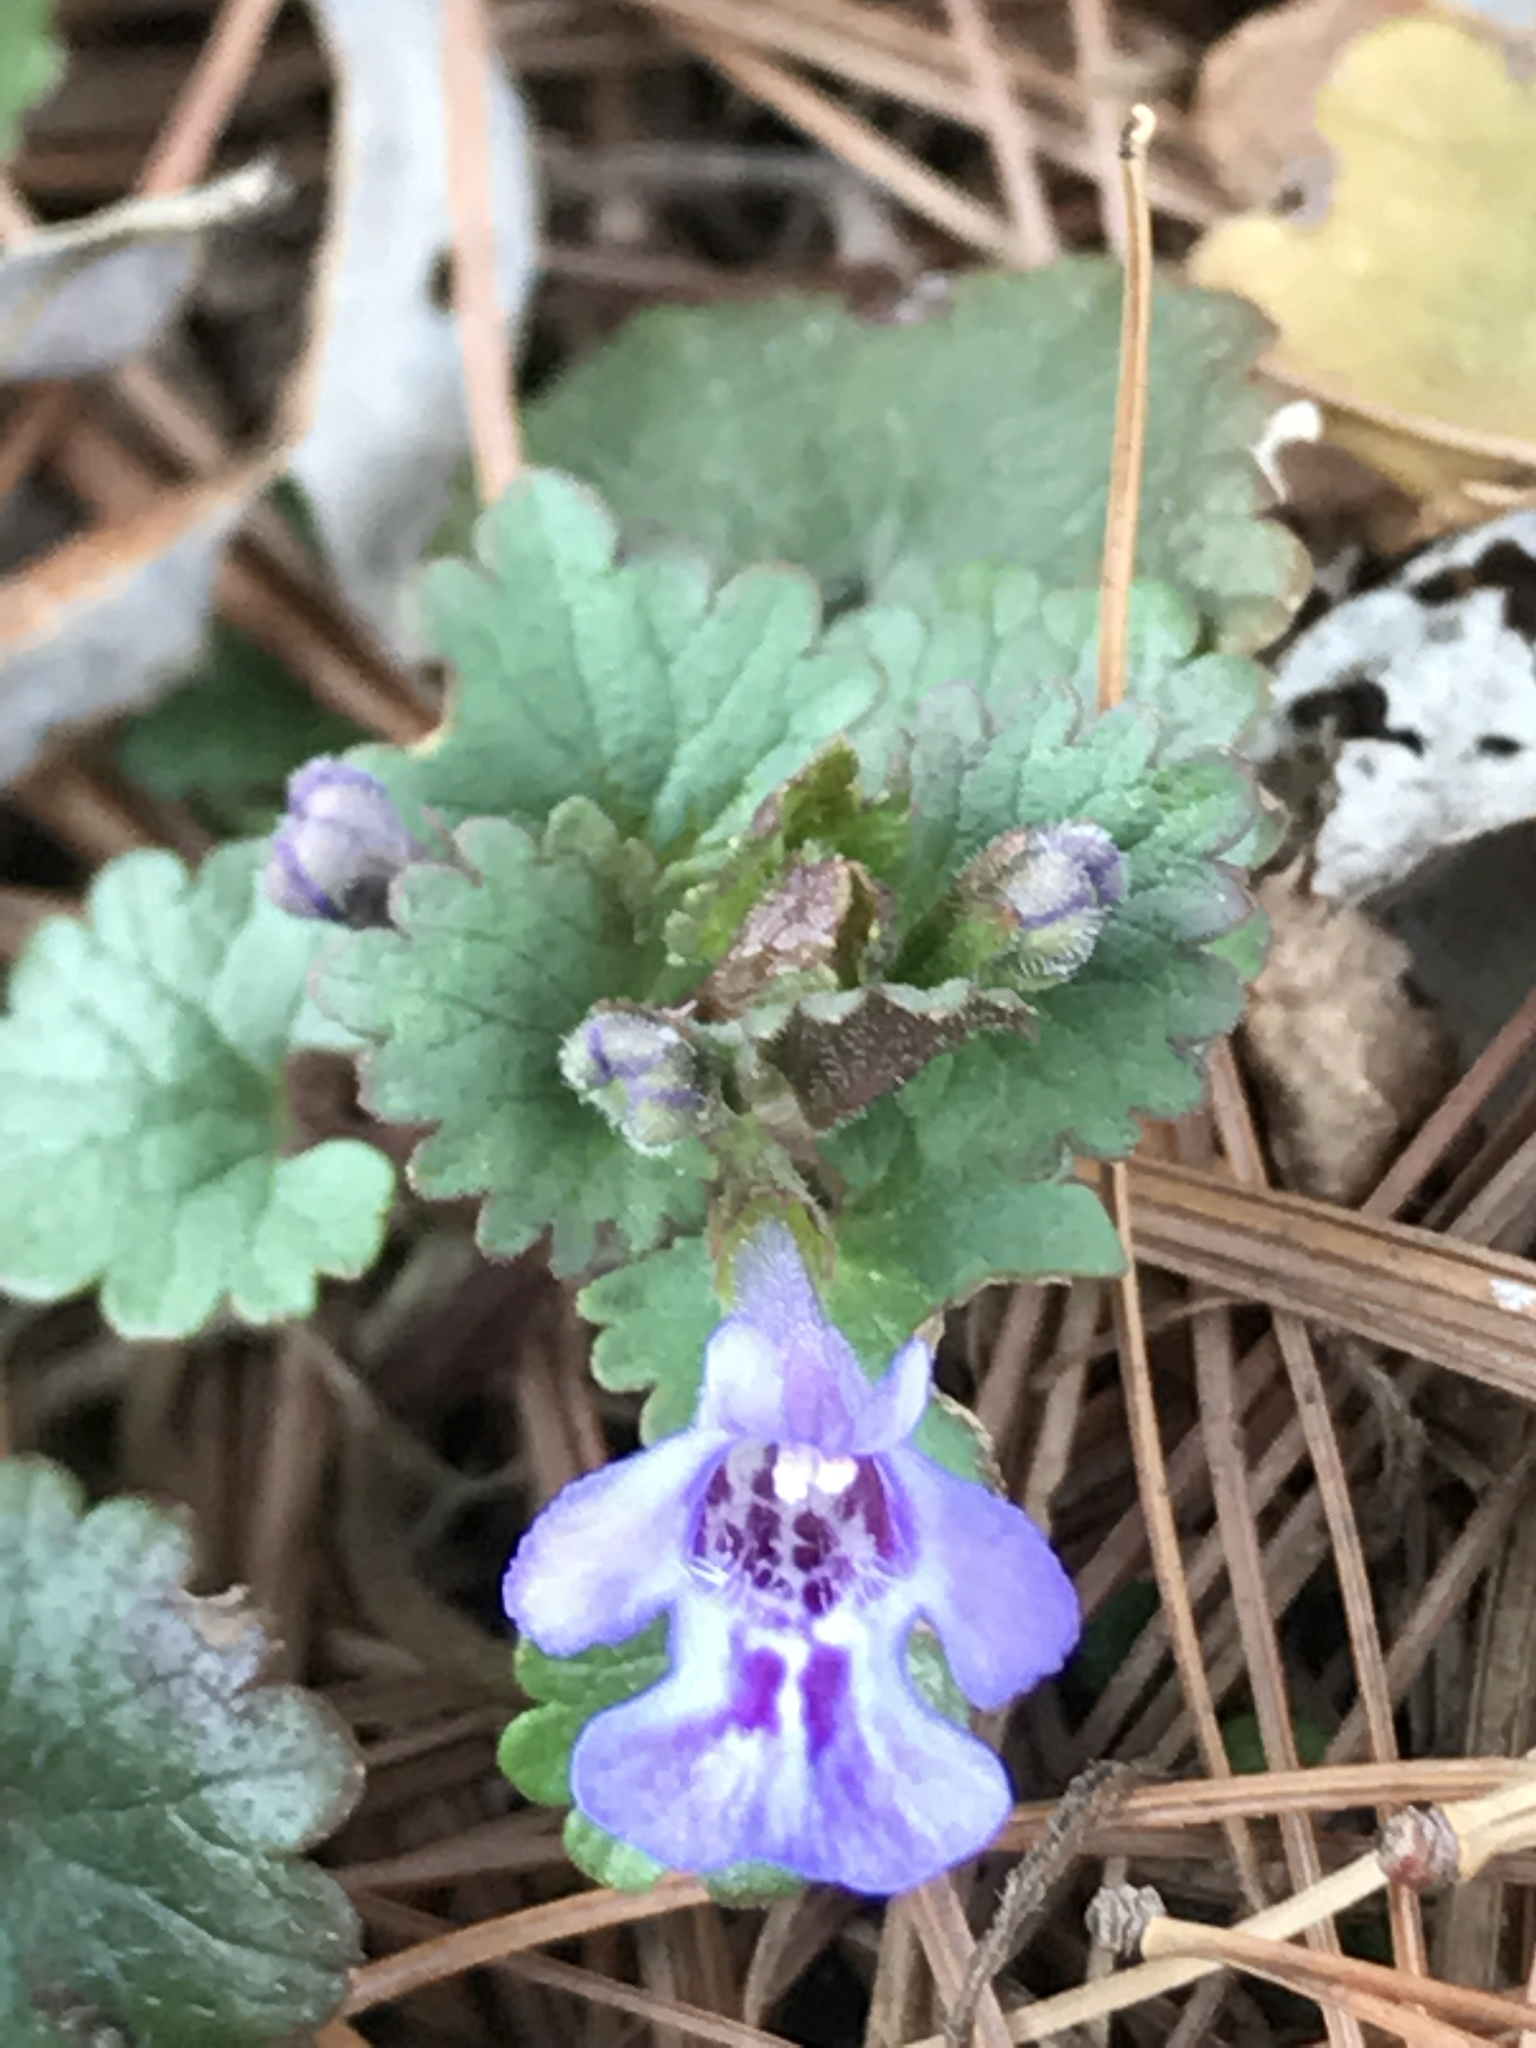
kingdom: Plantae
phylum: Tracheophyta
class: Magnoliopsida
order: Lamiales
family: Lamiaceae
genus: Glechoma
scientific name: Glechoma hederacea
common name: Ground ivy
